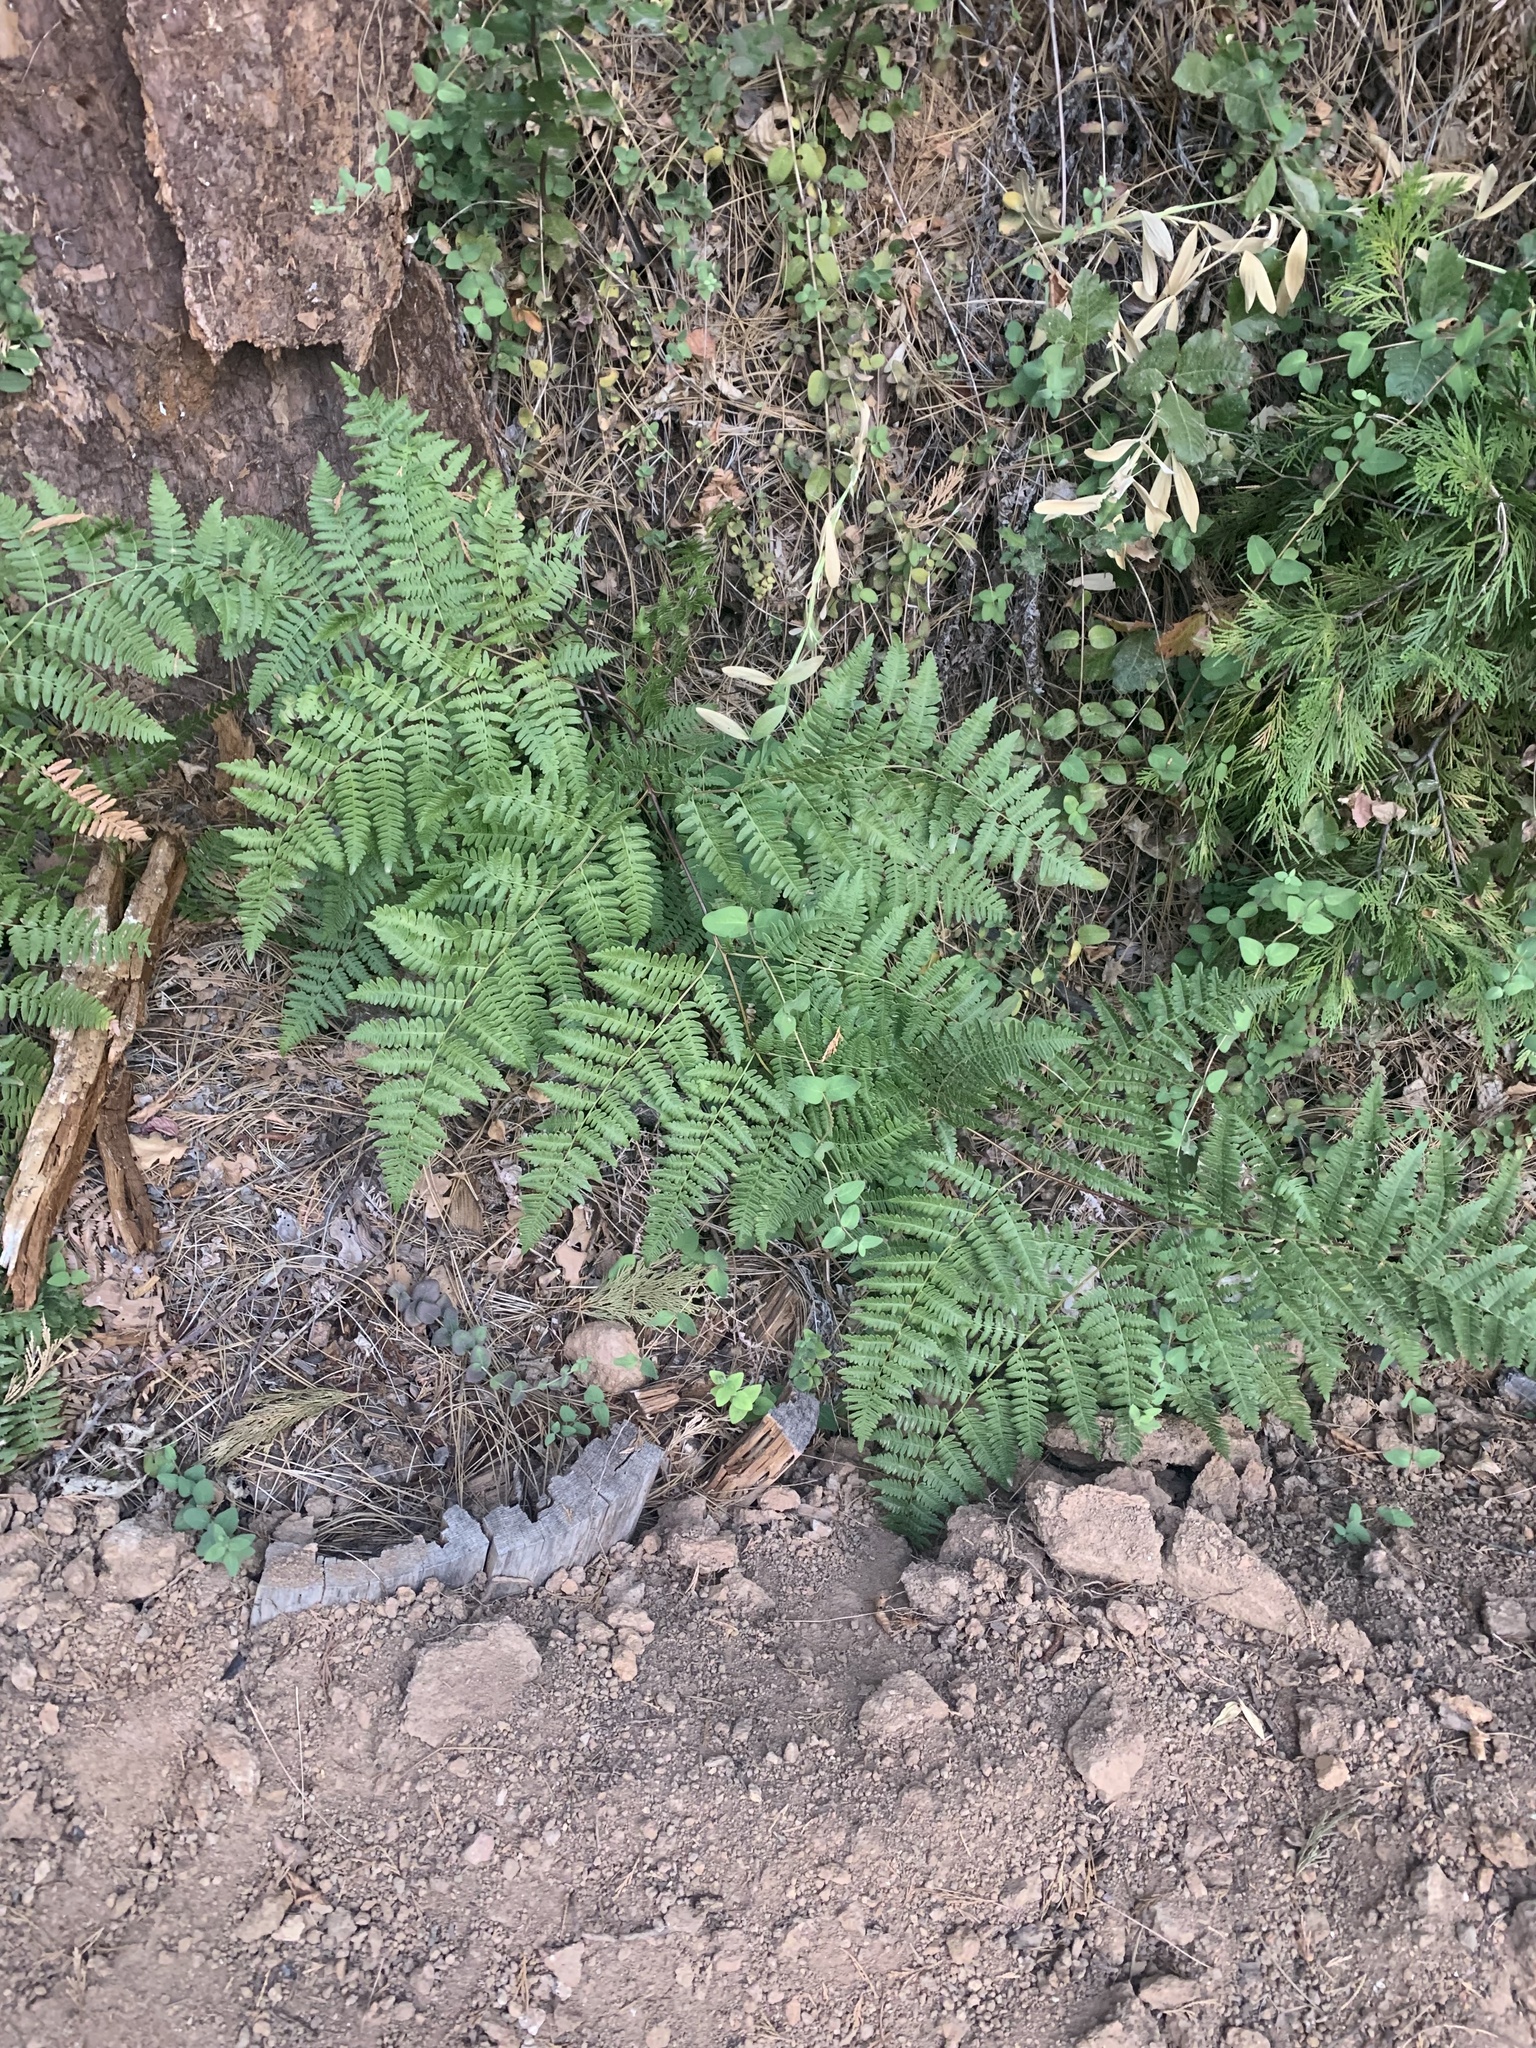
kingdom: Plantae
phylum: Tracheophyta
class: Polypodiopsida
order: Polypodiales
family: Dennstaedtiaceae
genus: Pteridium
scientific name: Pteridium aquilinum
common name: Bracken
